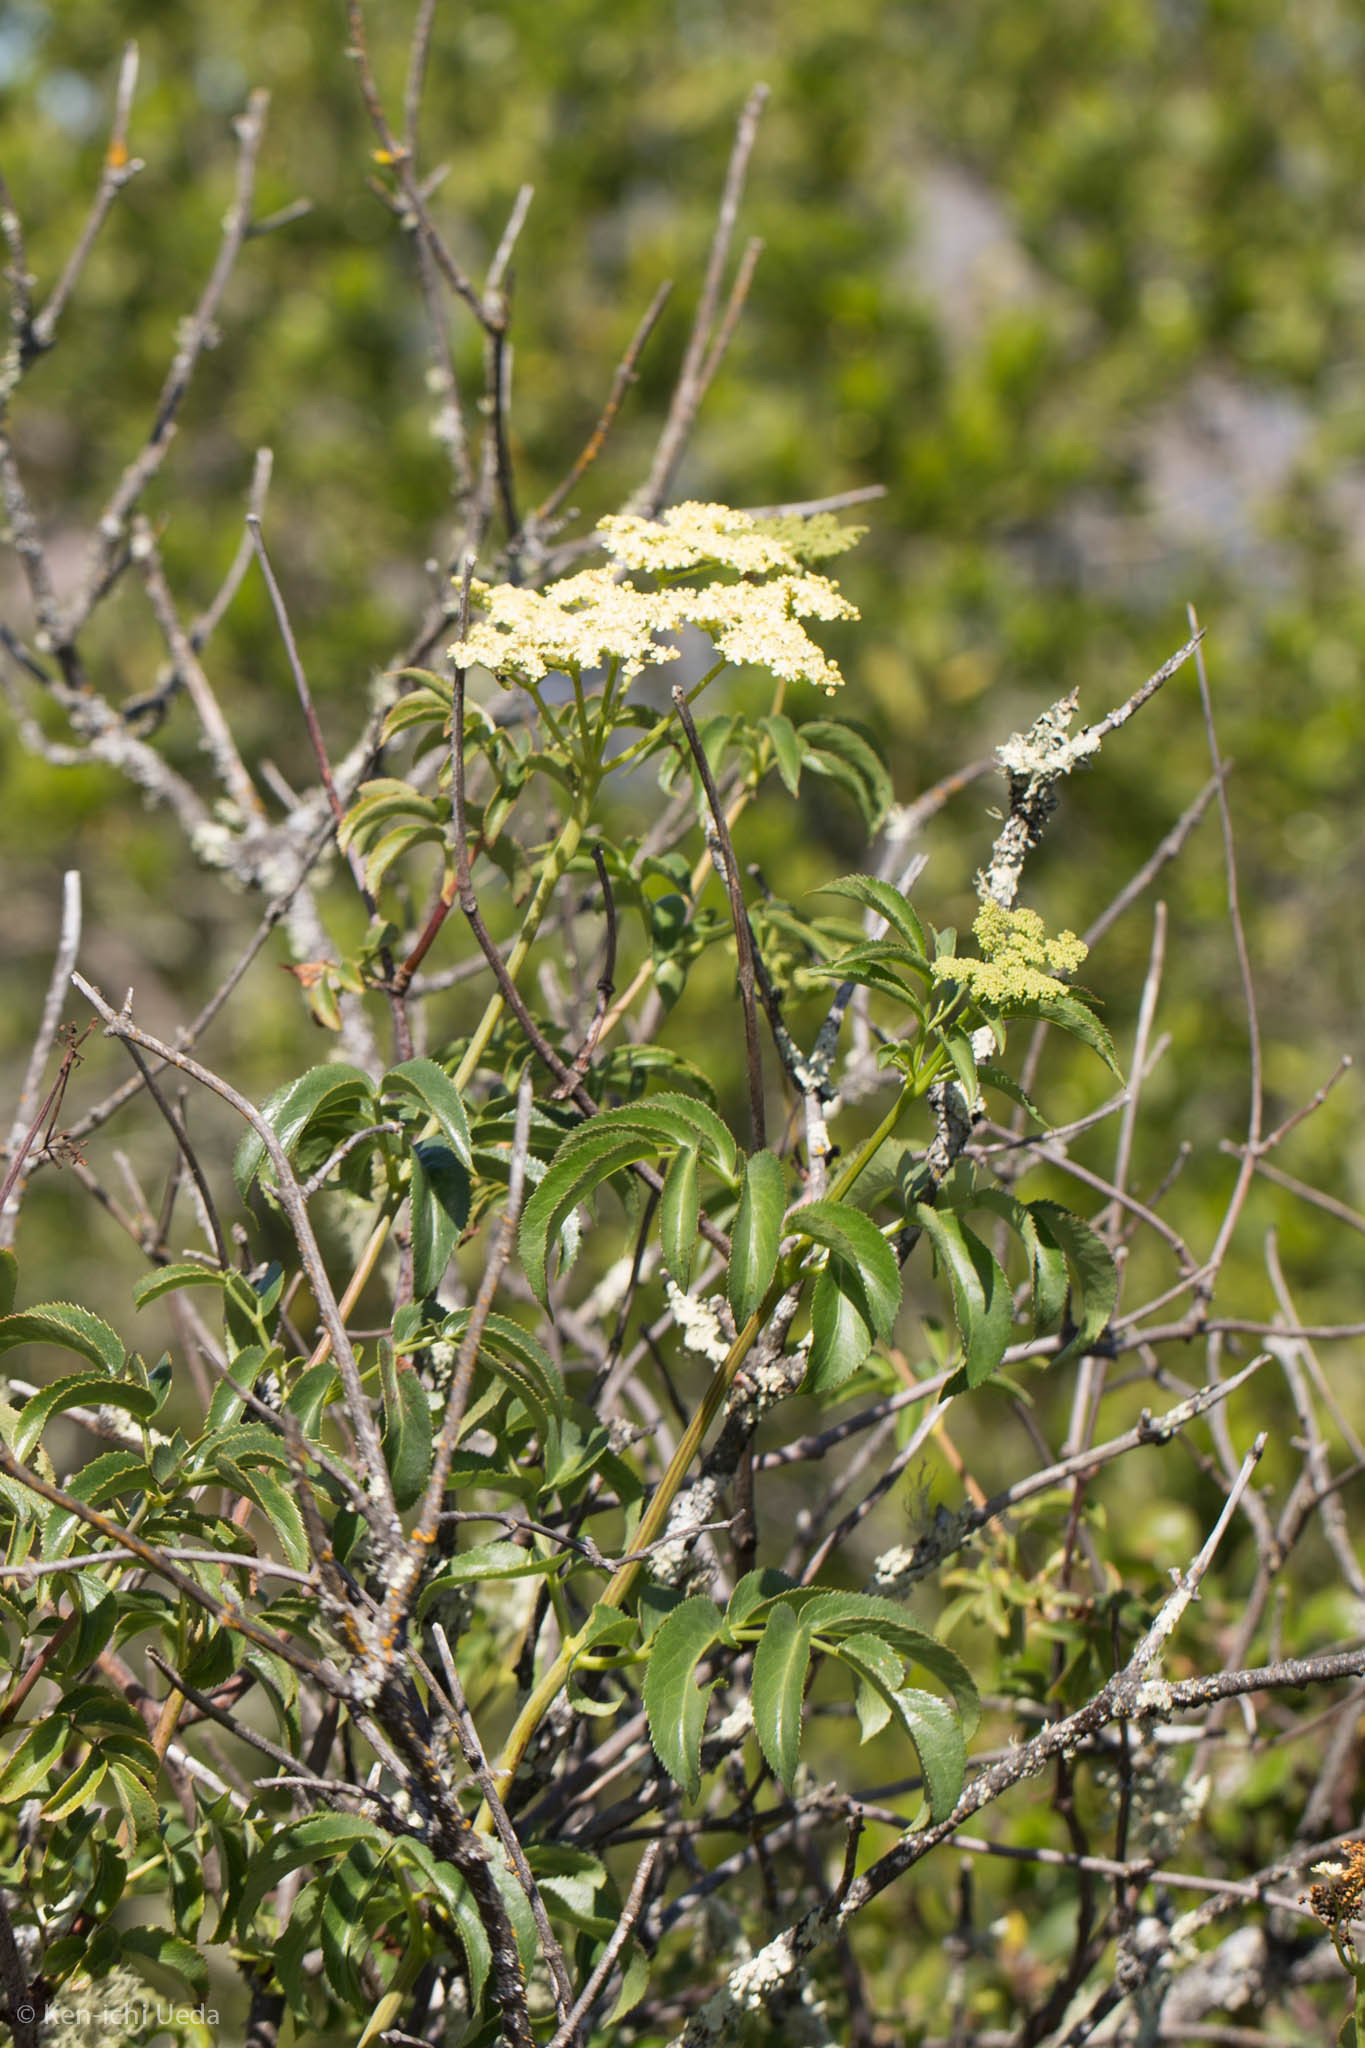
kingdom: Plantae
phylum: Tracheophyta
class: Magnoliopsida
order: Dipsacales
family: Viburnaceae
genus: Sambucus
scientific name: Sambucus cerulea
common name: Blue elder
